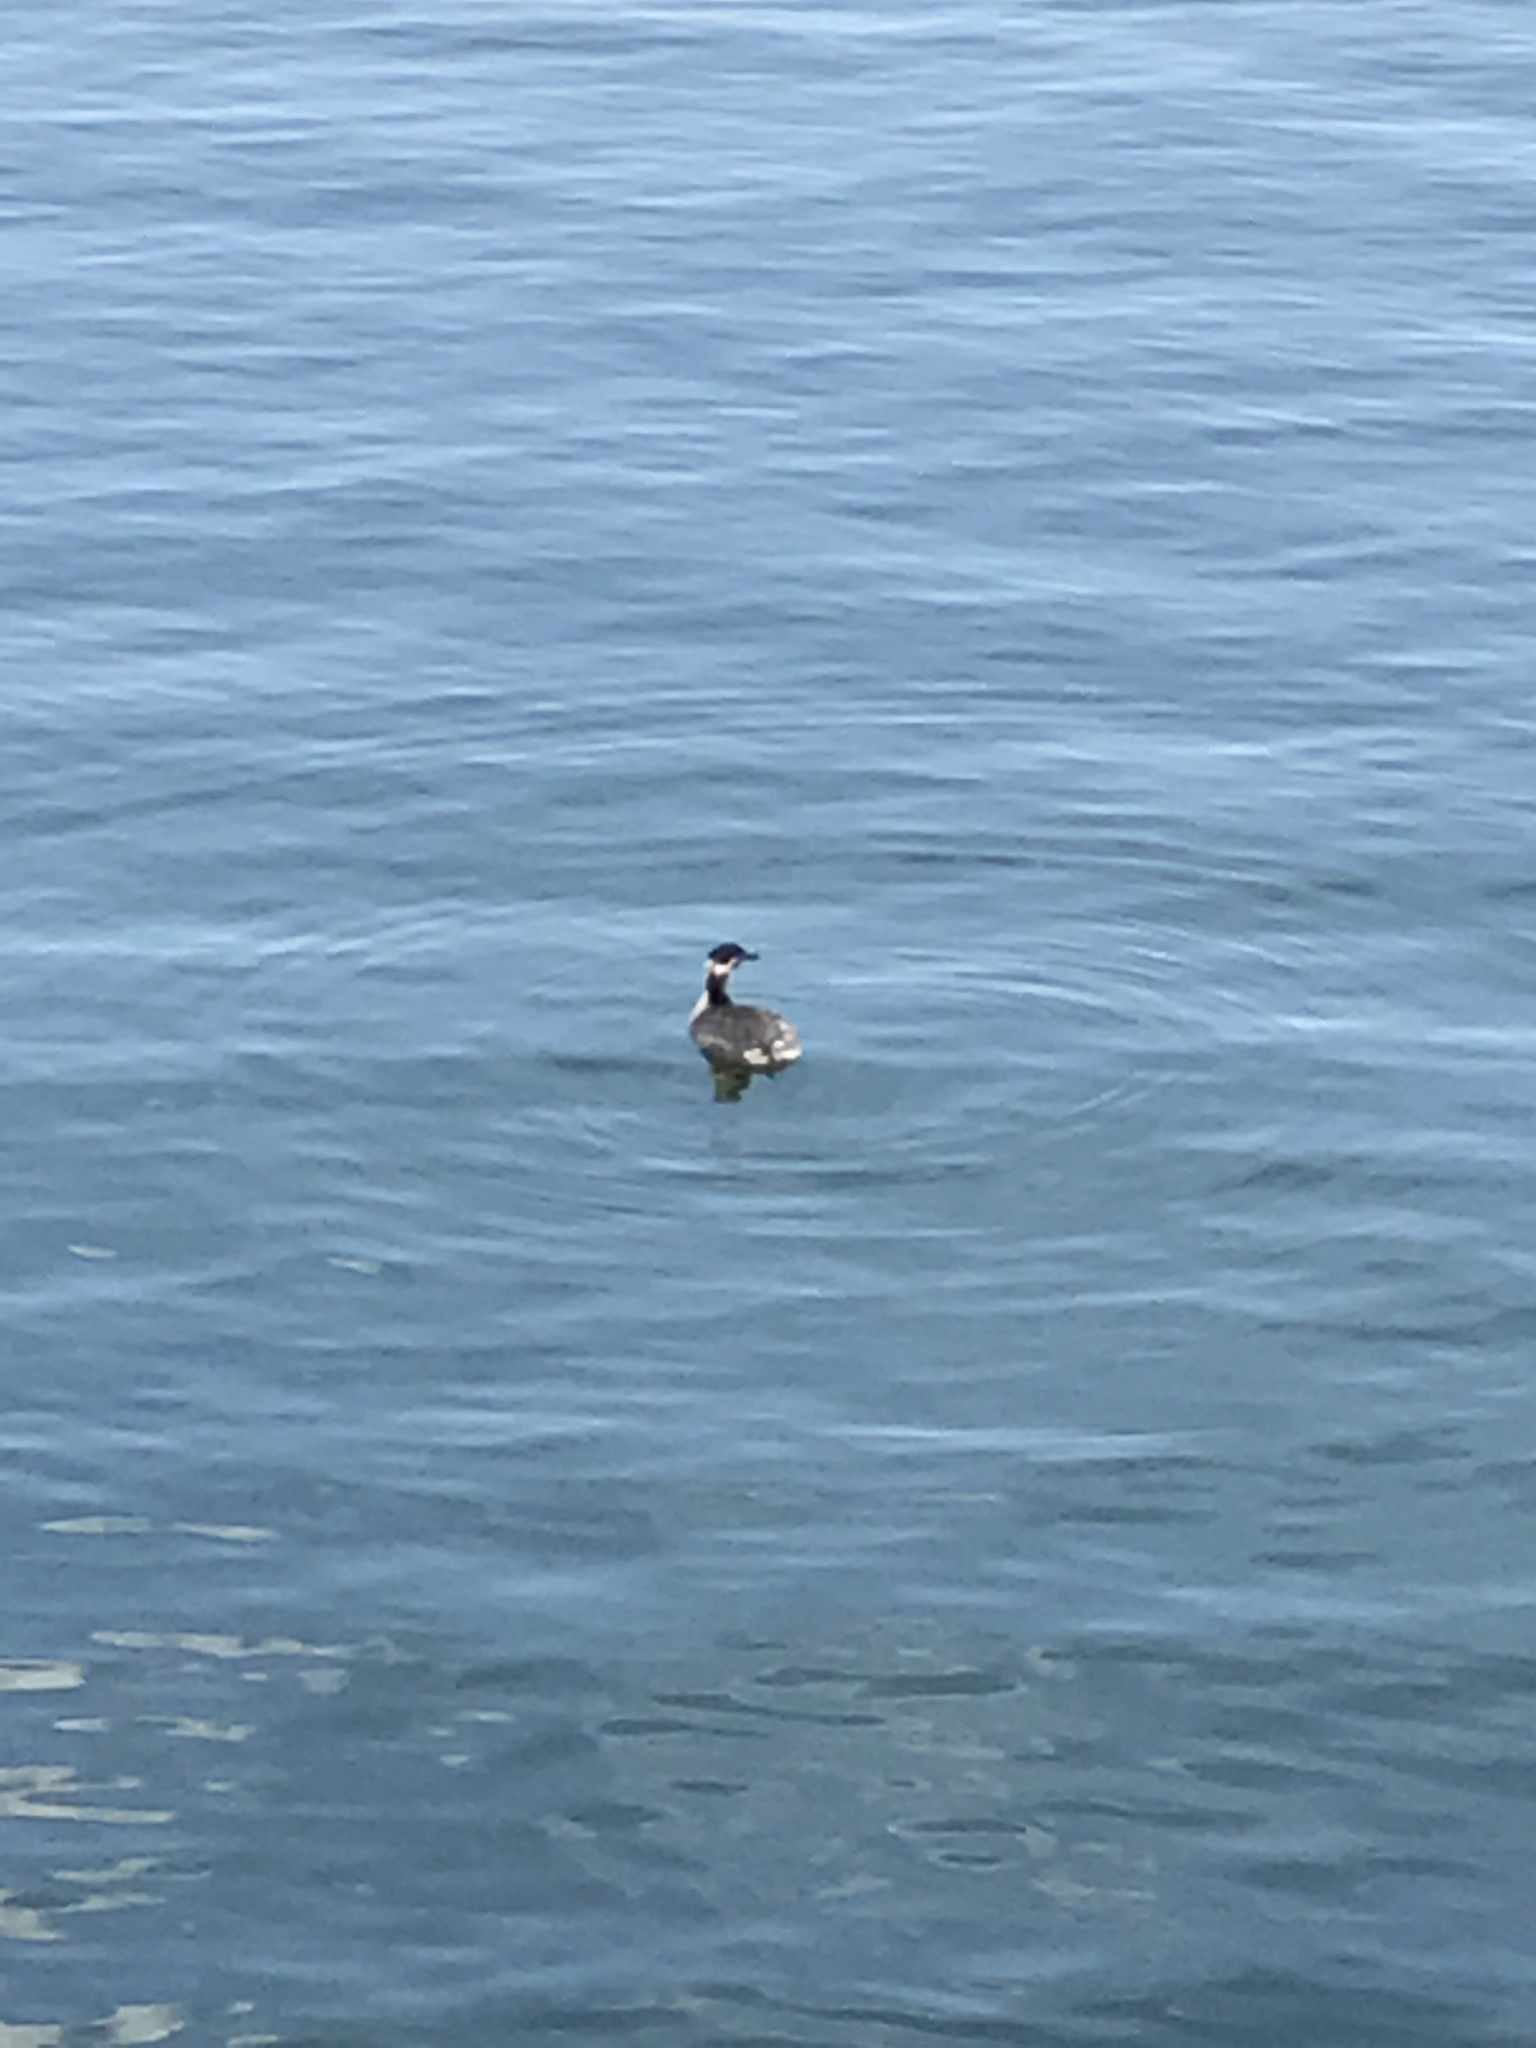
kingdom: Animalia
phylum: Chordata
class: Aves
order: Podicipediformes
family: Podicipedidae
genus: Podiceps
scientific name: Podiceps auritus
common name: Horned grebe
